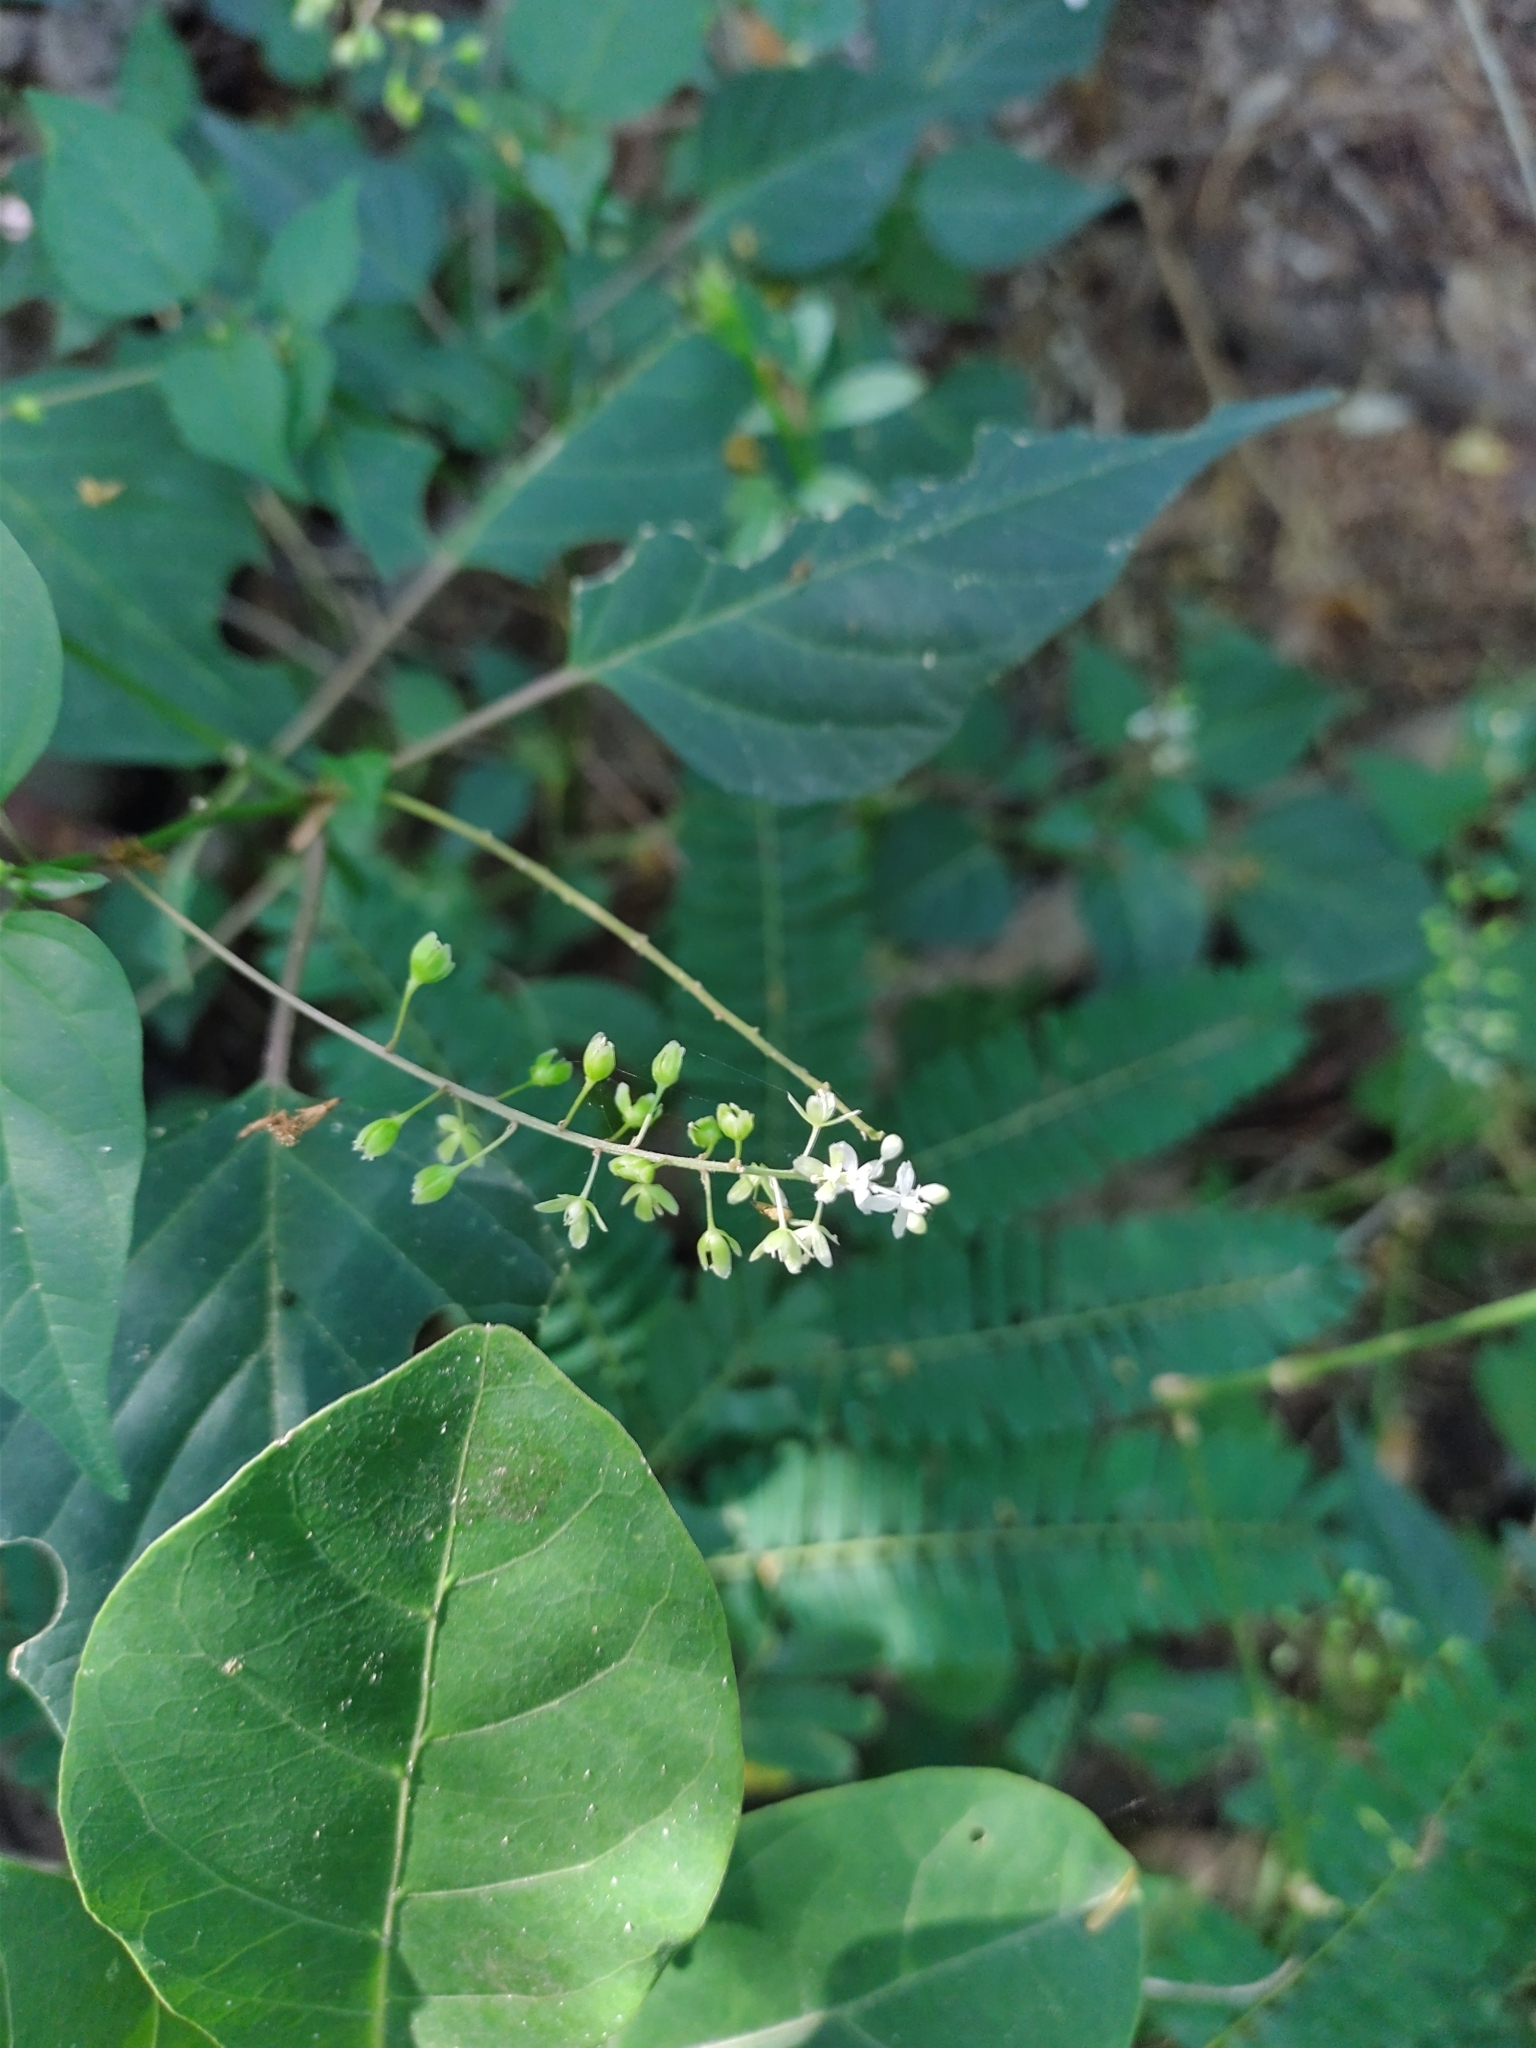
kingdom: Plantae
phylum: Tracheophyta
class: Magnoliopsida
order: Caryophyllales
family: Phytolaccaceae
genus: Rivina
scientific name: Rivina humilis
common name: Rougeplant
